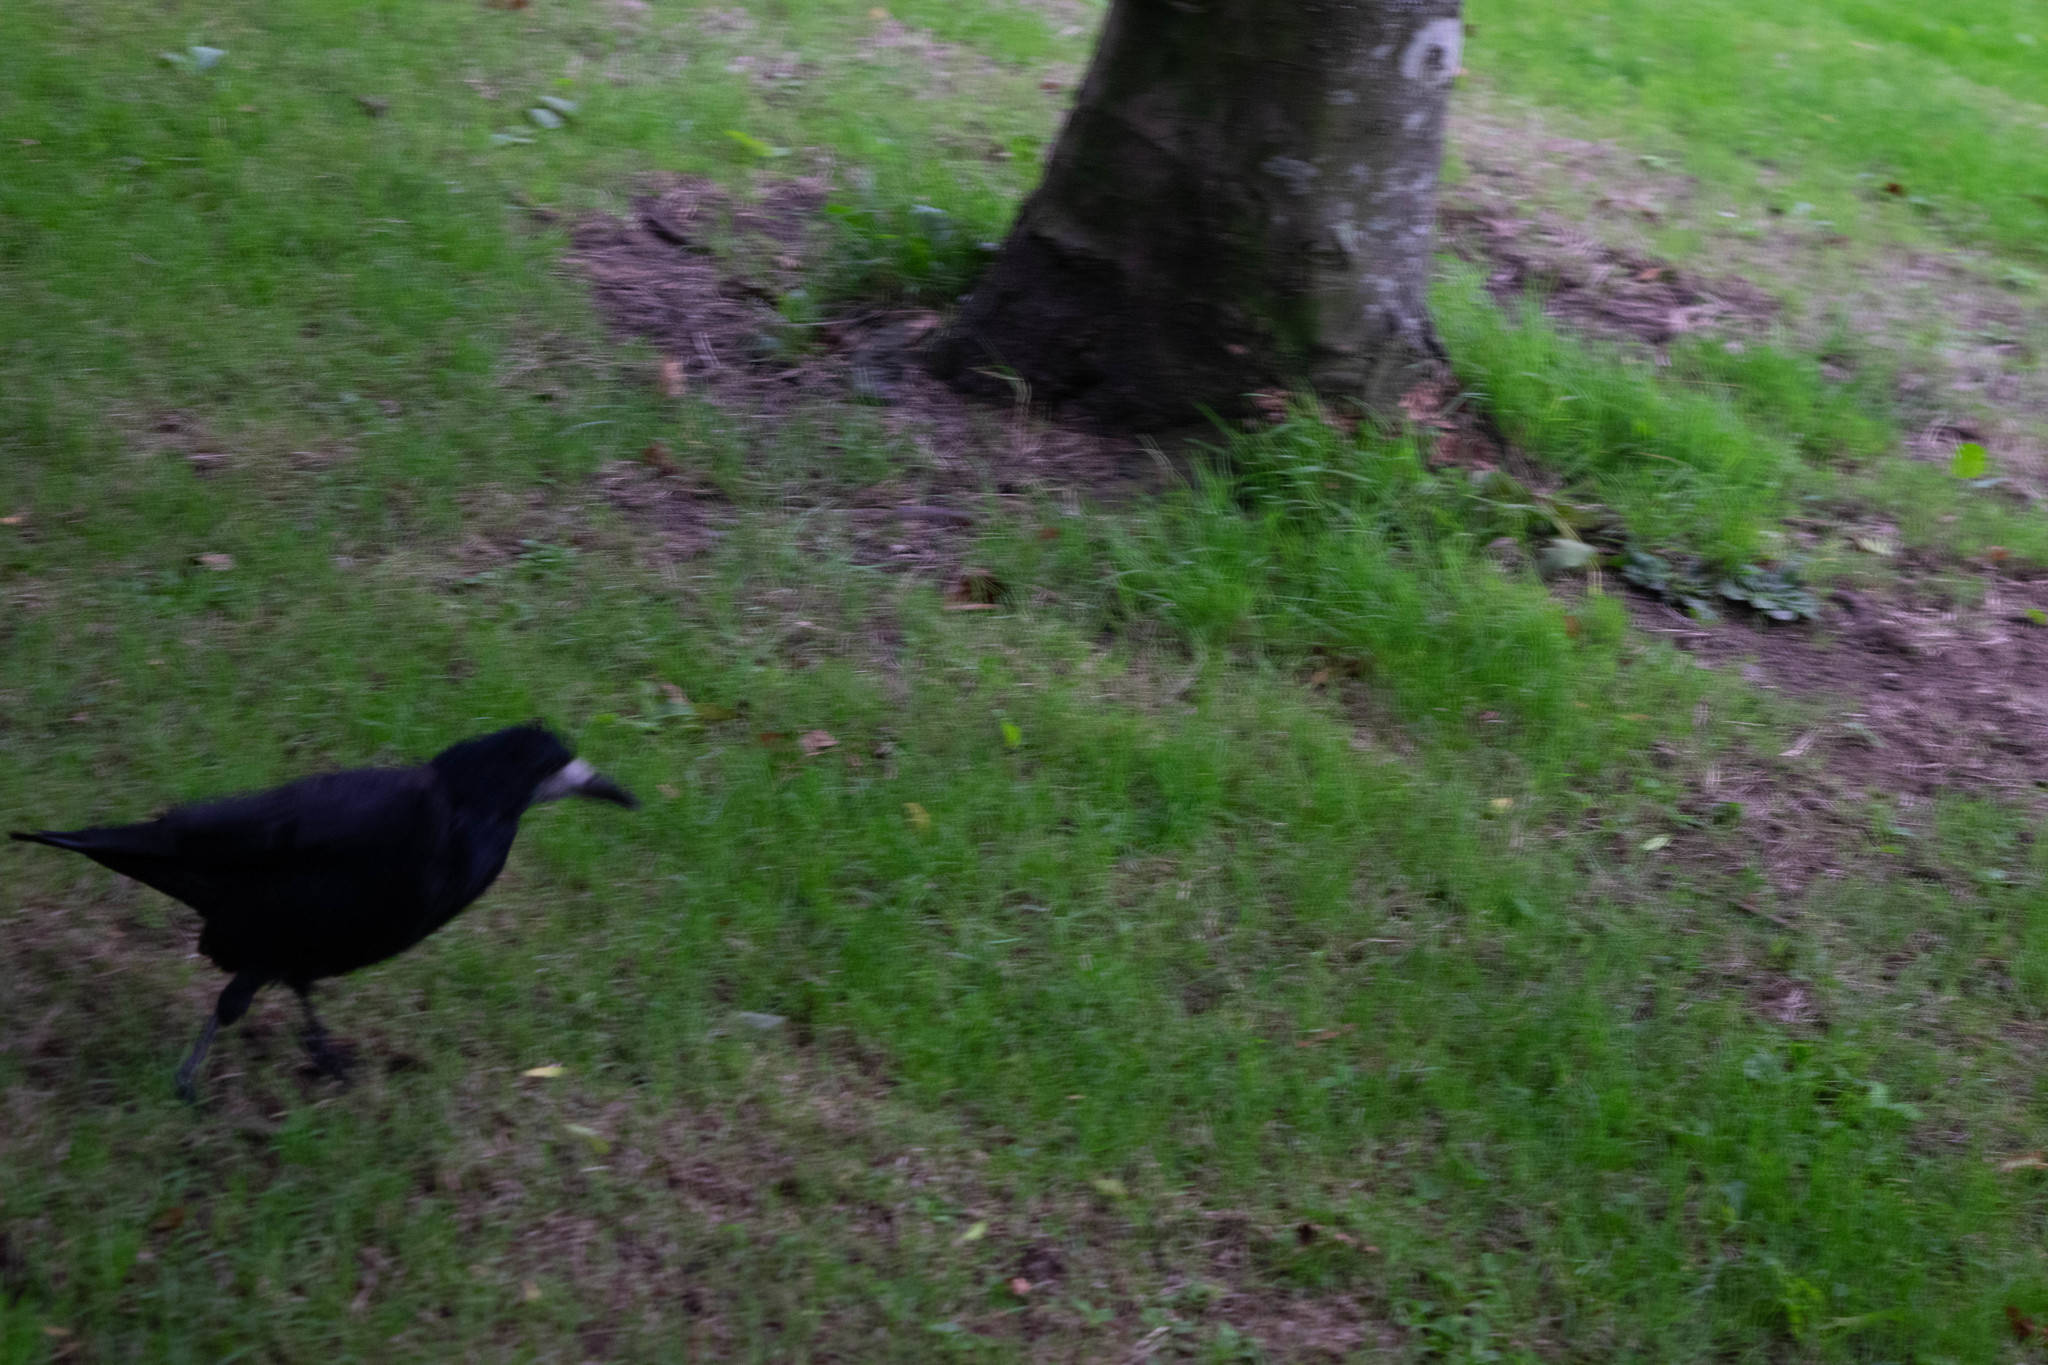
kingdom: Animalia
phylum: Chordata
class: Aves
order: Passeriformes
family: Corvidae
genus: Corvus
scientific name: Corvus frugilegus
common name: Rook
